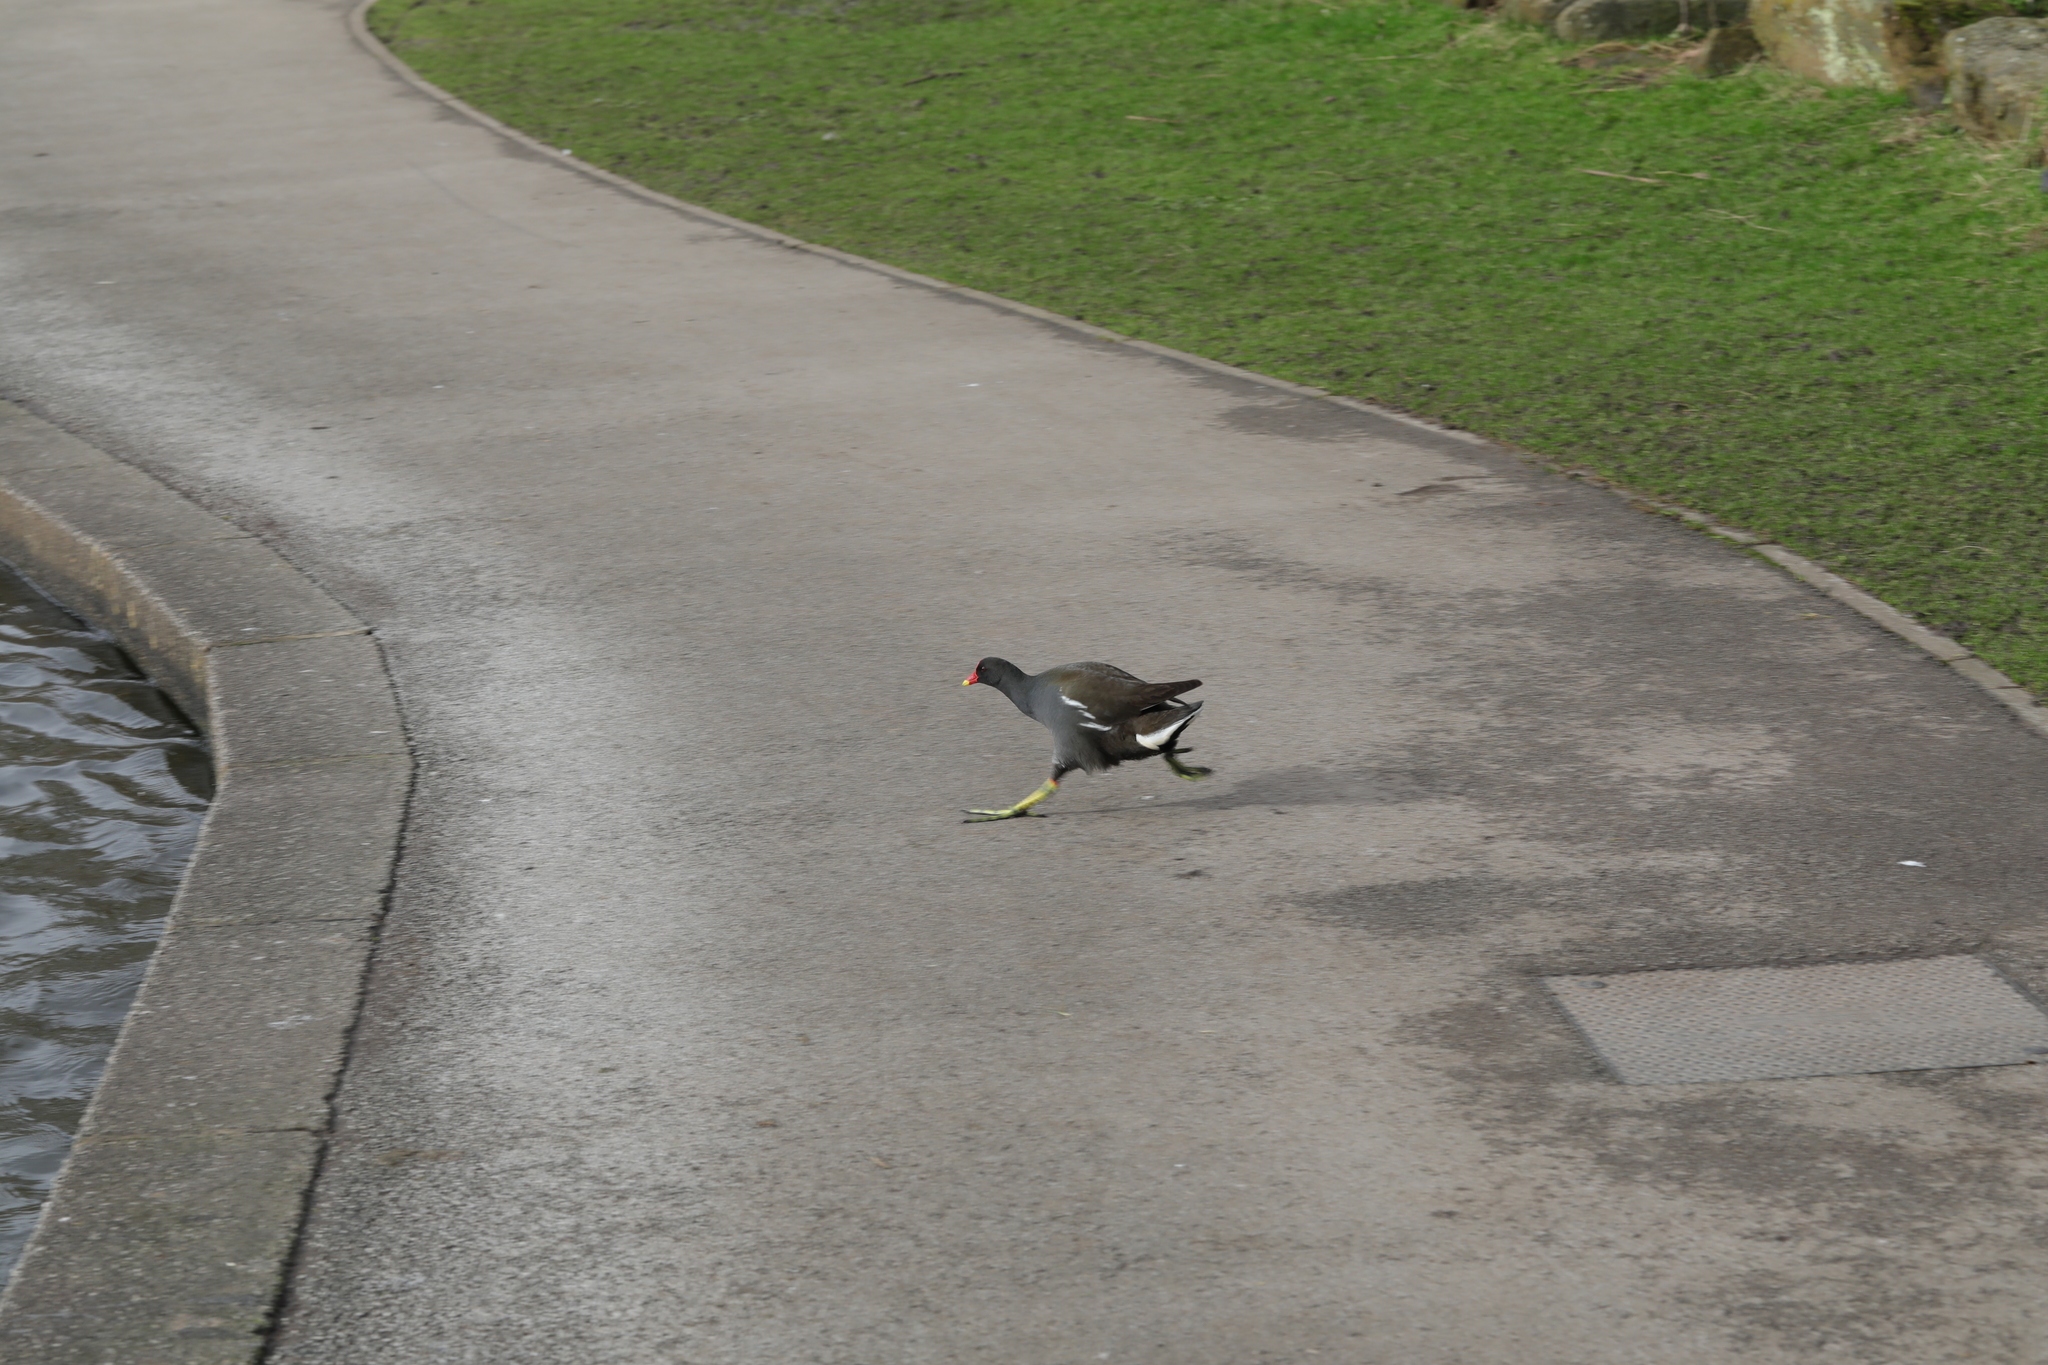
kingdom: Animalia
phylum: Chordata
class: Aves
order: Gruiformes
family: Rallidae
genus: Gallinula
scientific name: Gallinula chloropus
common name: Common moorhen
